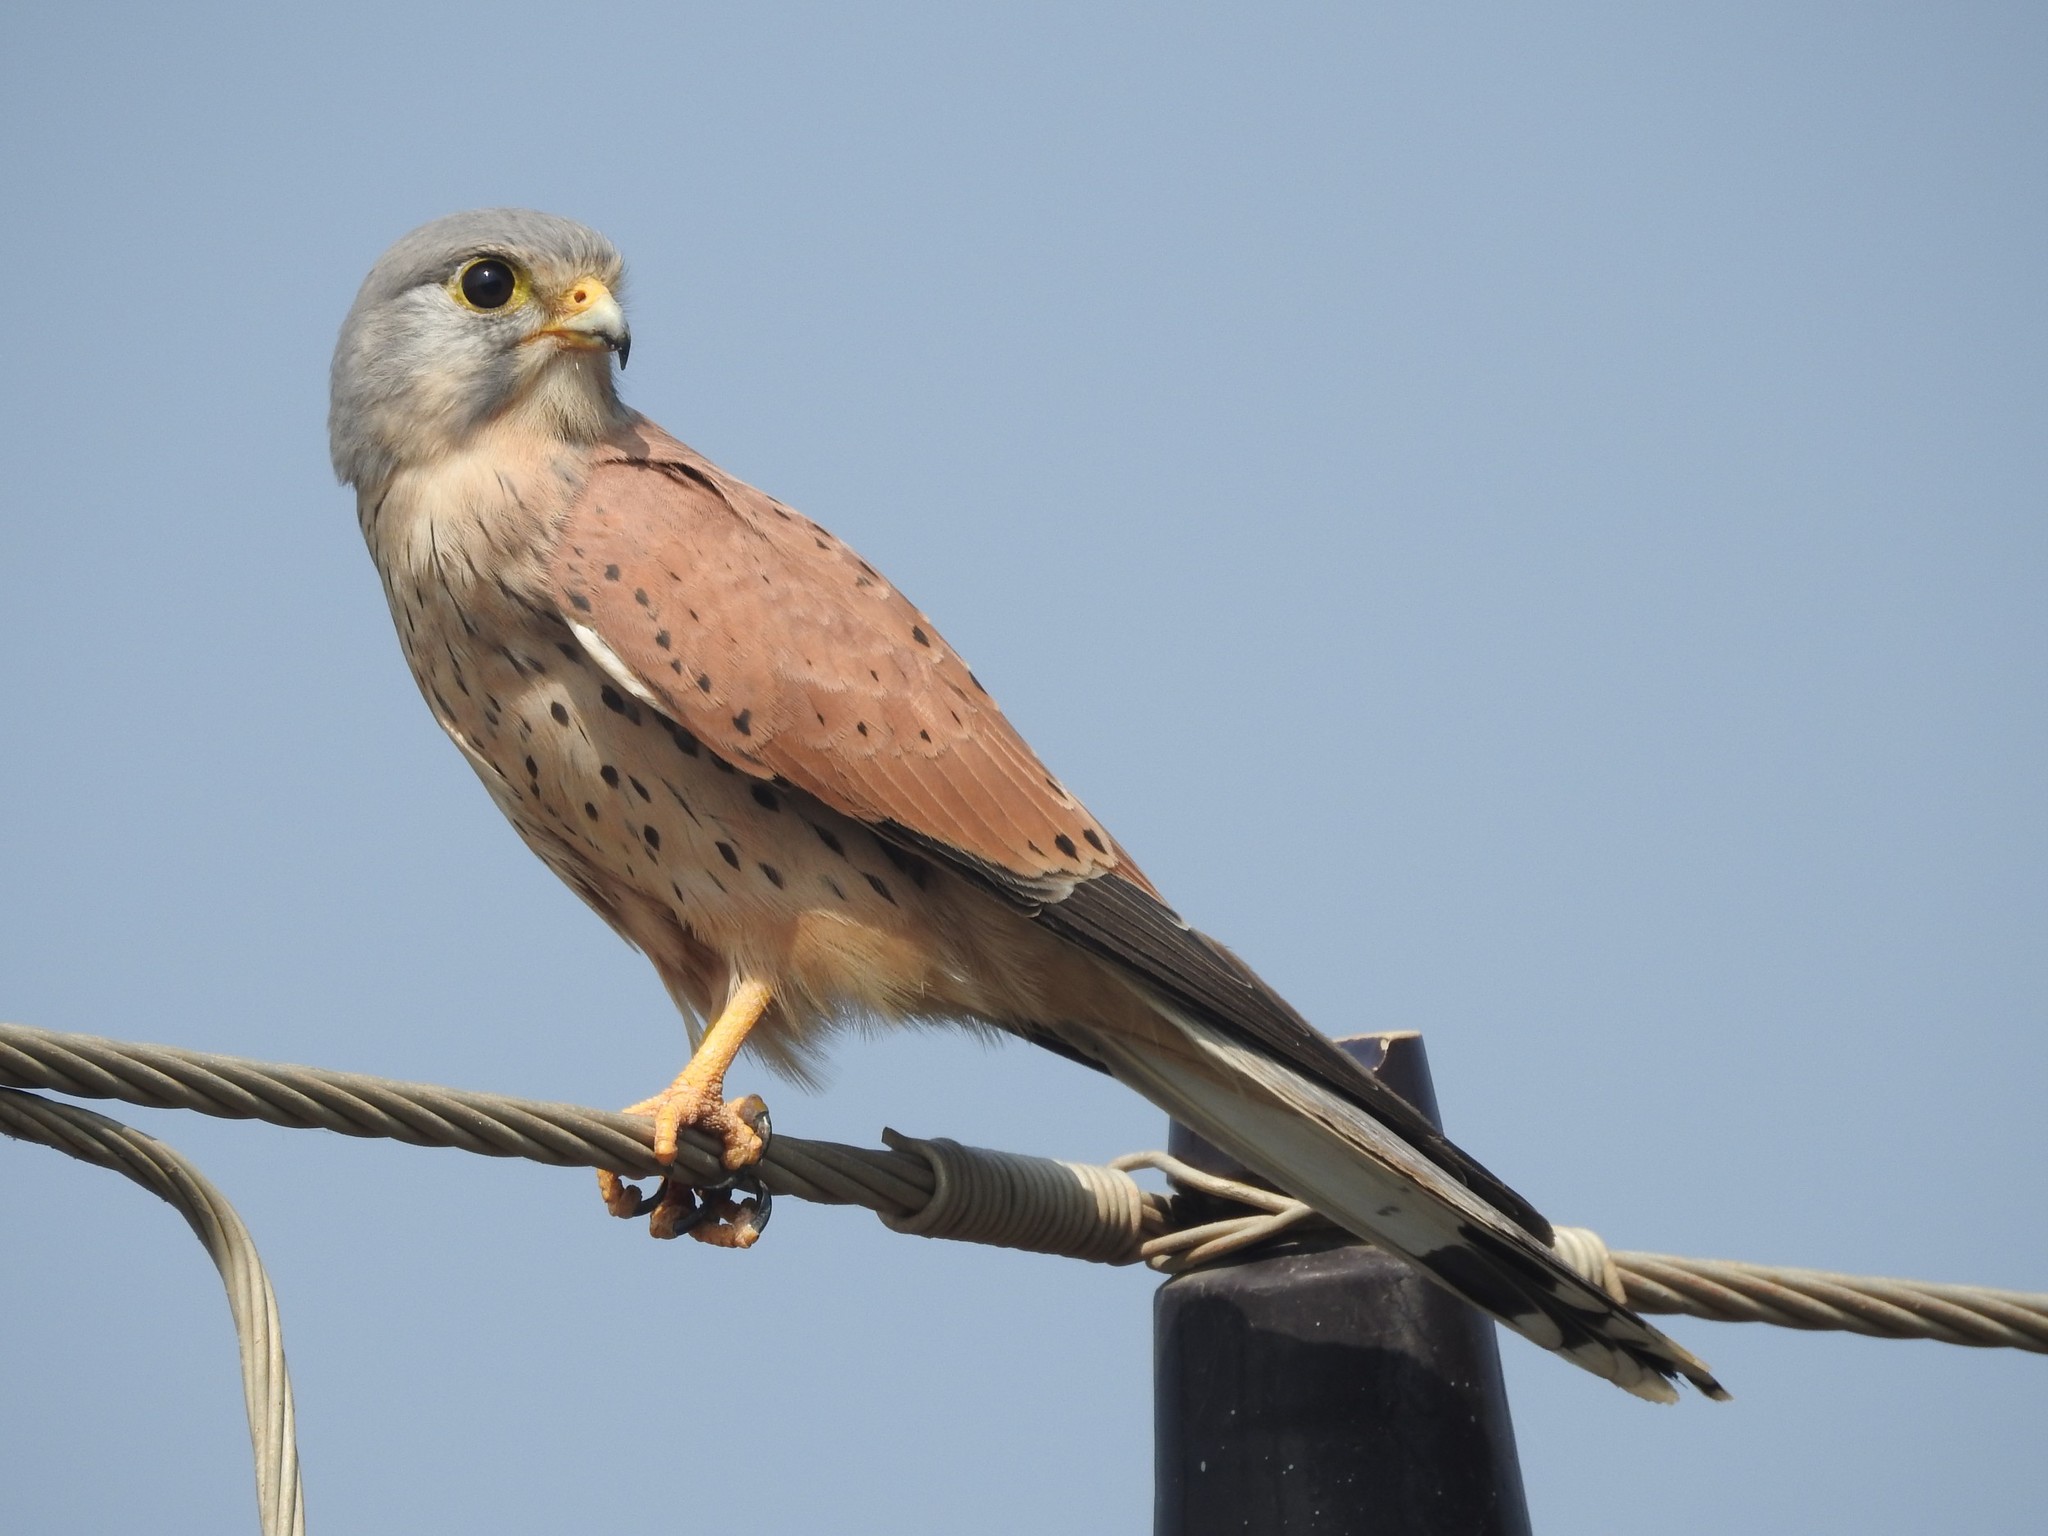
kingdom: Animalia
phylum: Chordata
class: Aves
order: Falconiformes
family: Falconidae
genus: Falco
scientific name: Falco tinnunculus
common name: Common kestrel
